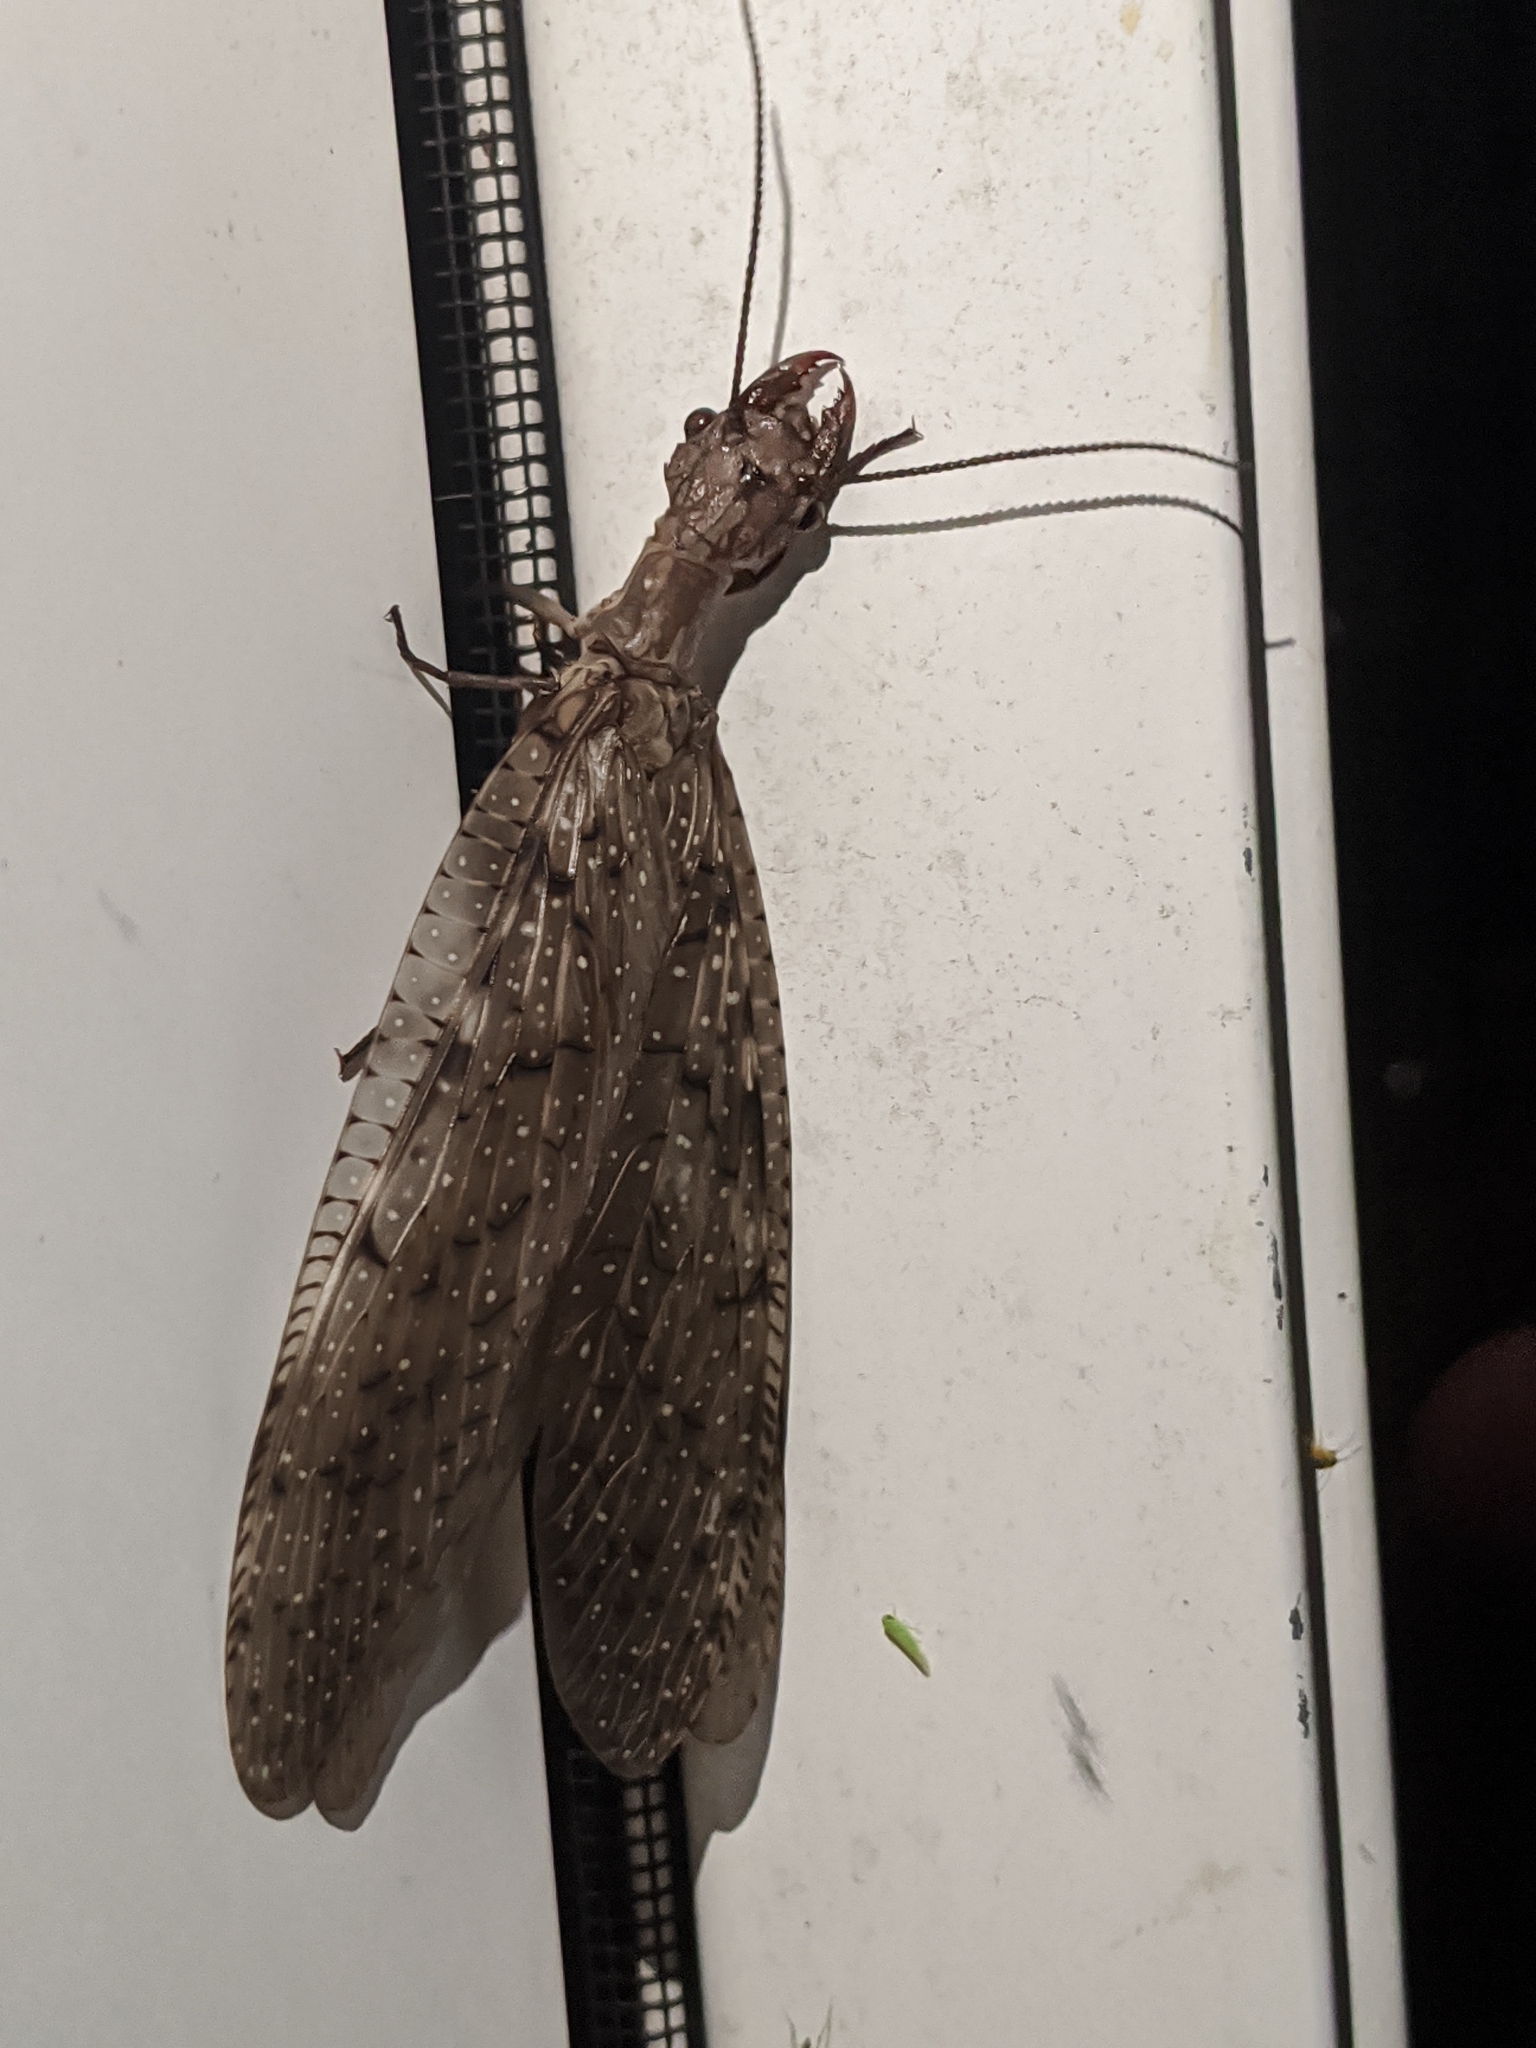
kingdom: Animalia
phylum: Arthropoda
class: Insecta
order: Megaloptera
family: Corydalidae
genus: Corydalus
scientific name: Corydalus cornutus
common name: Dobsonfly
